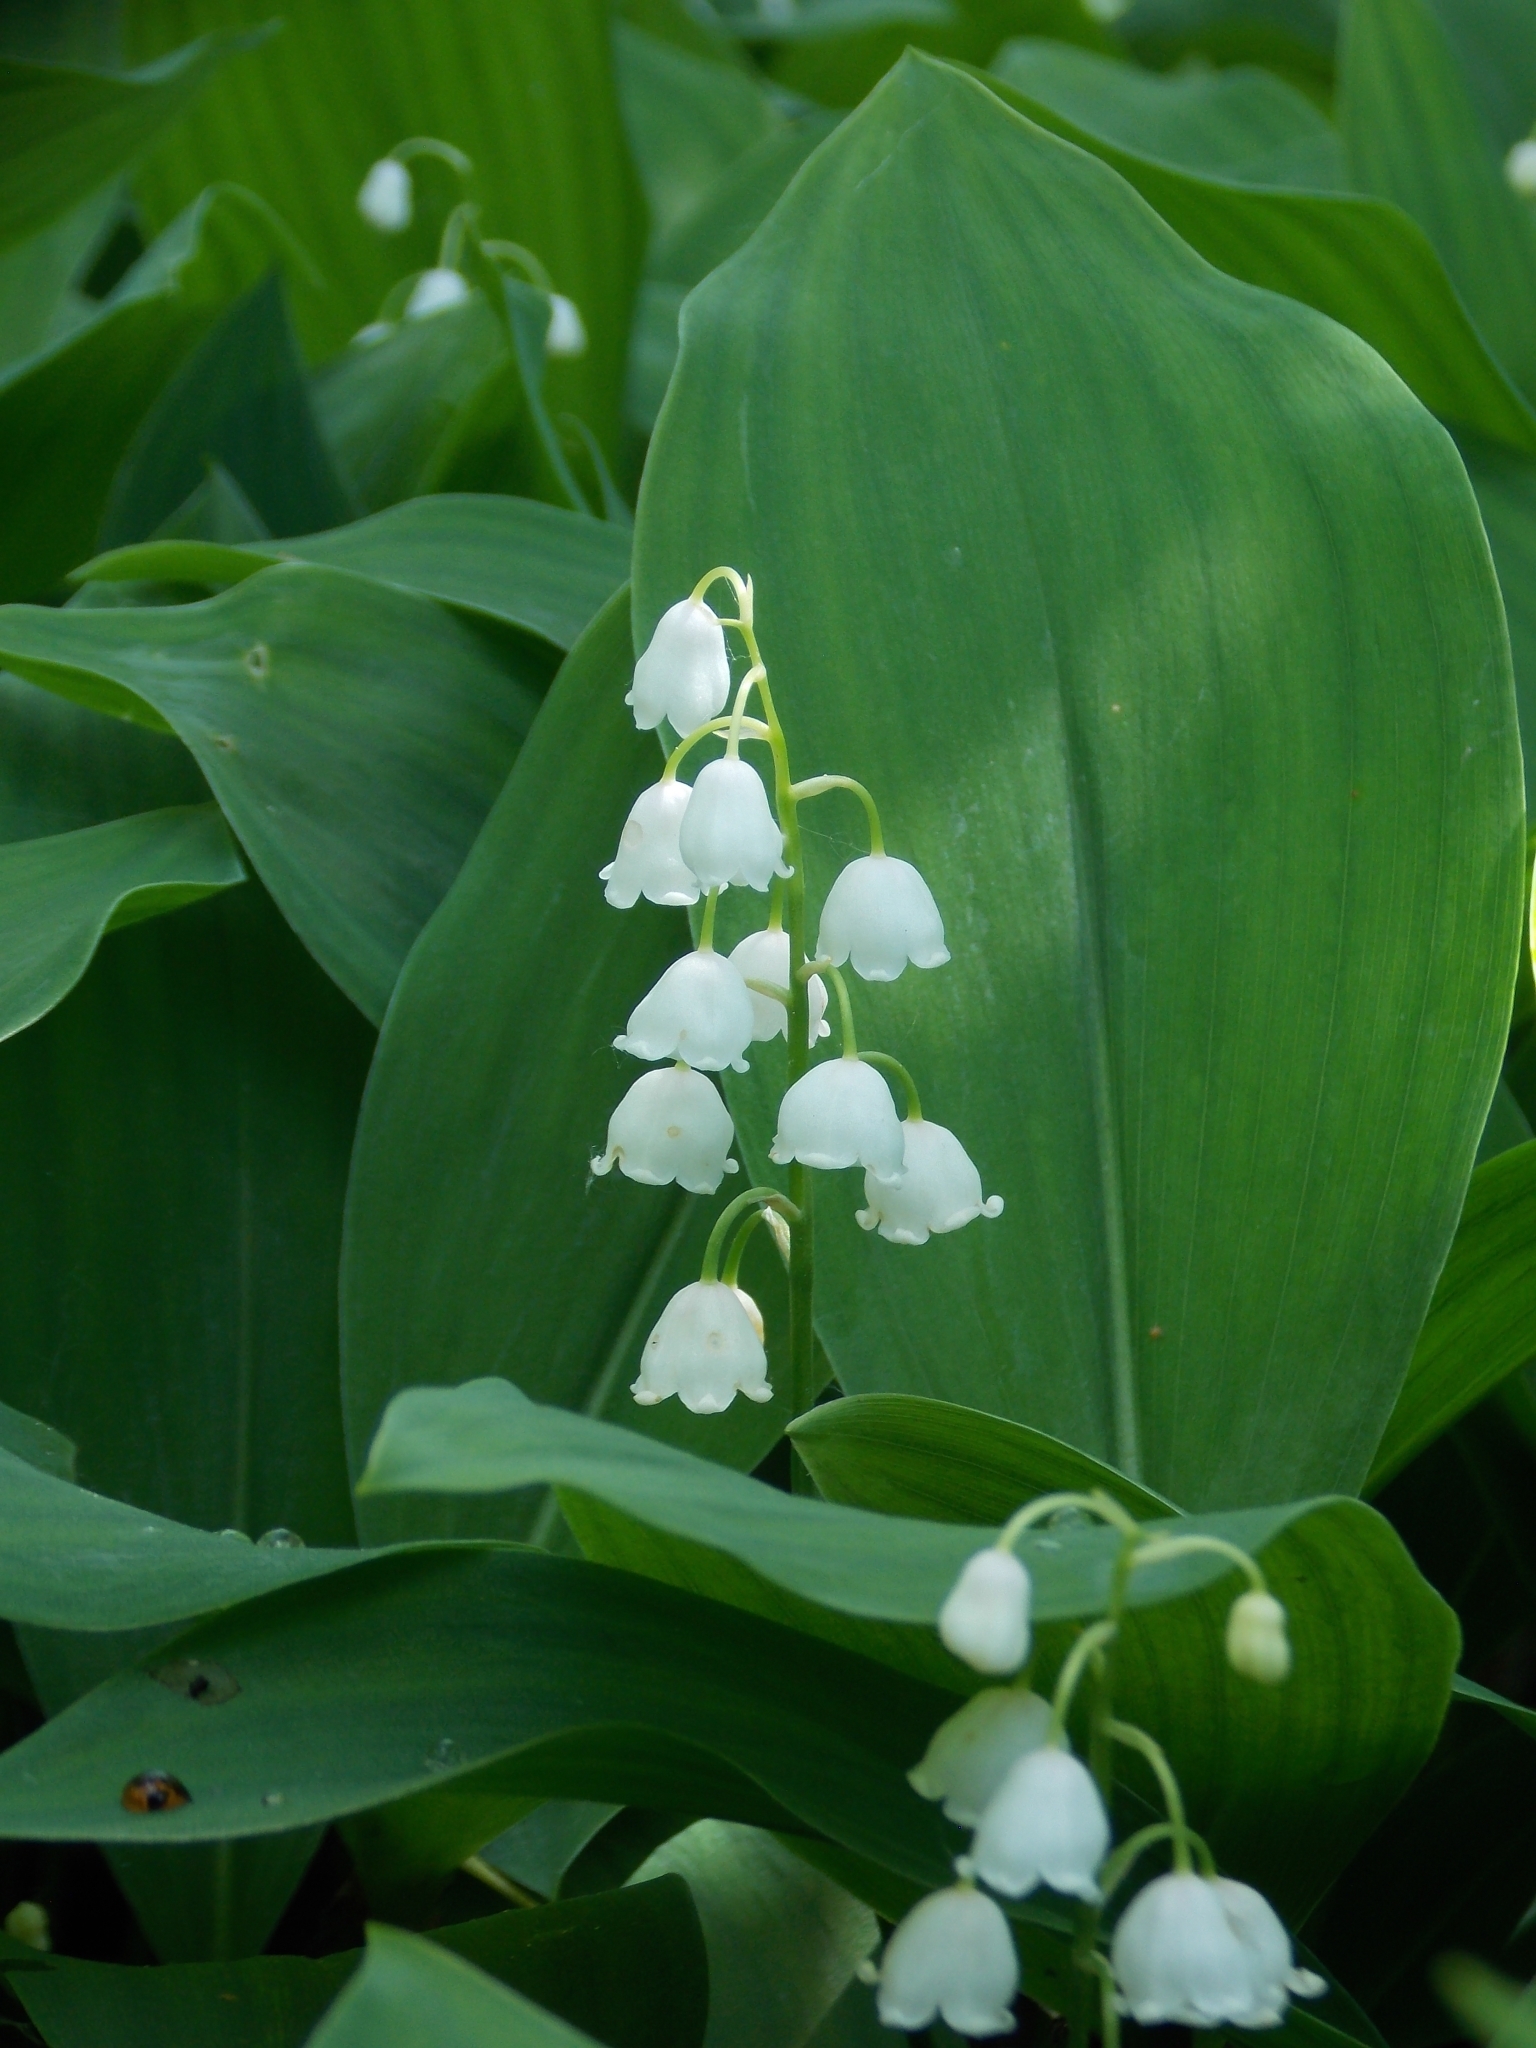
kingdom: Plantae
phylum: Tracheophyta
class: Liliopsida
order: Asparagales
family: Asparagaceae
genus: Convallaria
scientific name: Convallaria majalis
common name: Lily-of-the-valley
